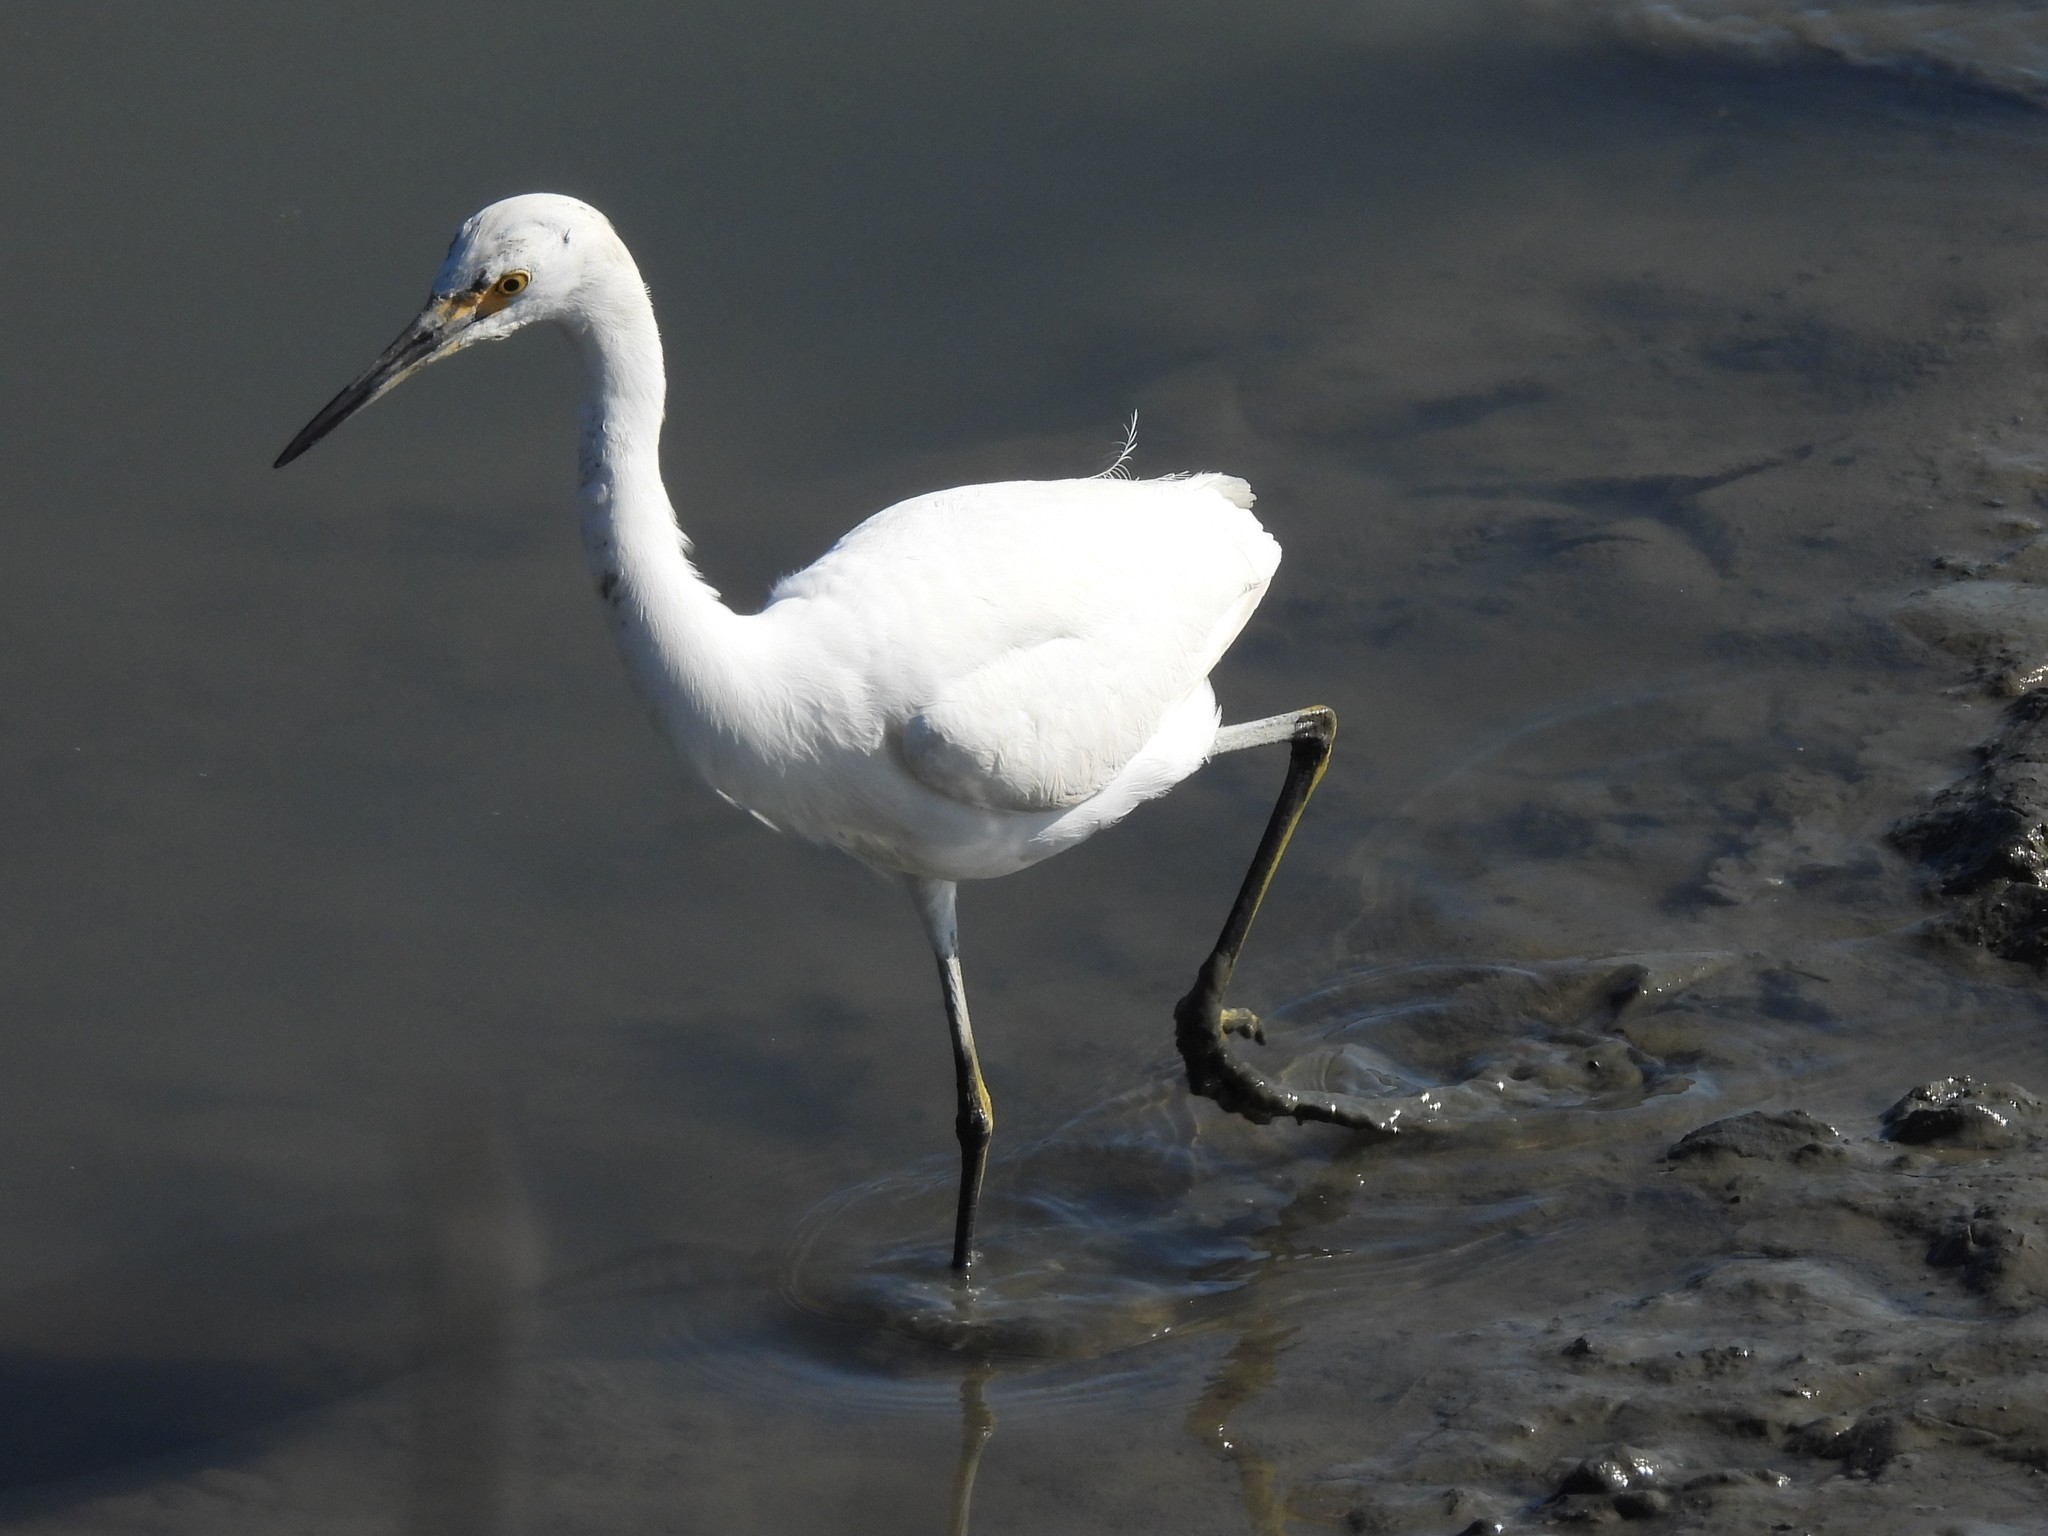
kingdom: Animalia
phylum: Chordata
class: Aves
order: Pelecaniformes
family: Ardeidae
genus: Egretta
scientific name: Egretta thula
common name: Snowy egret
